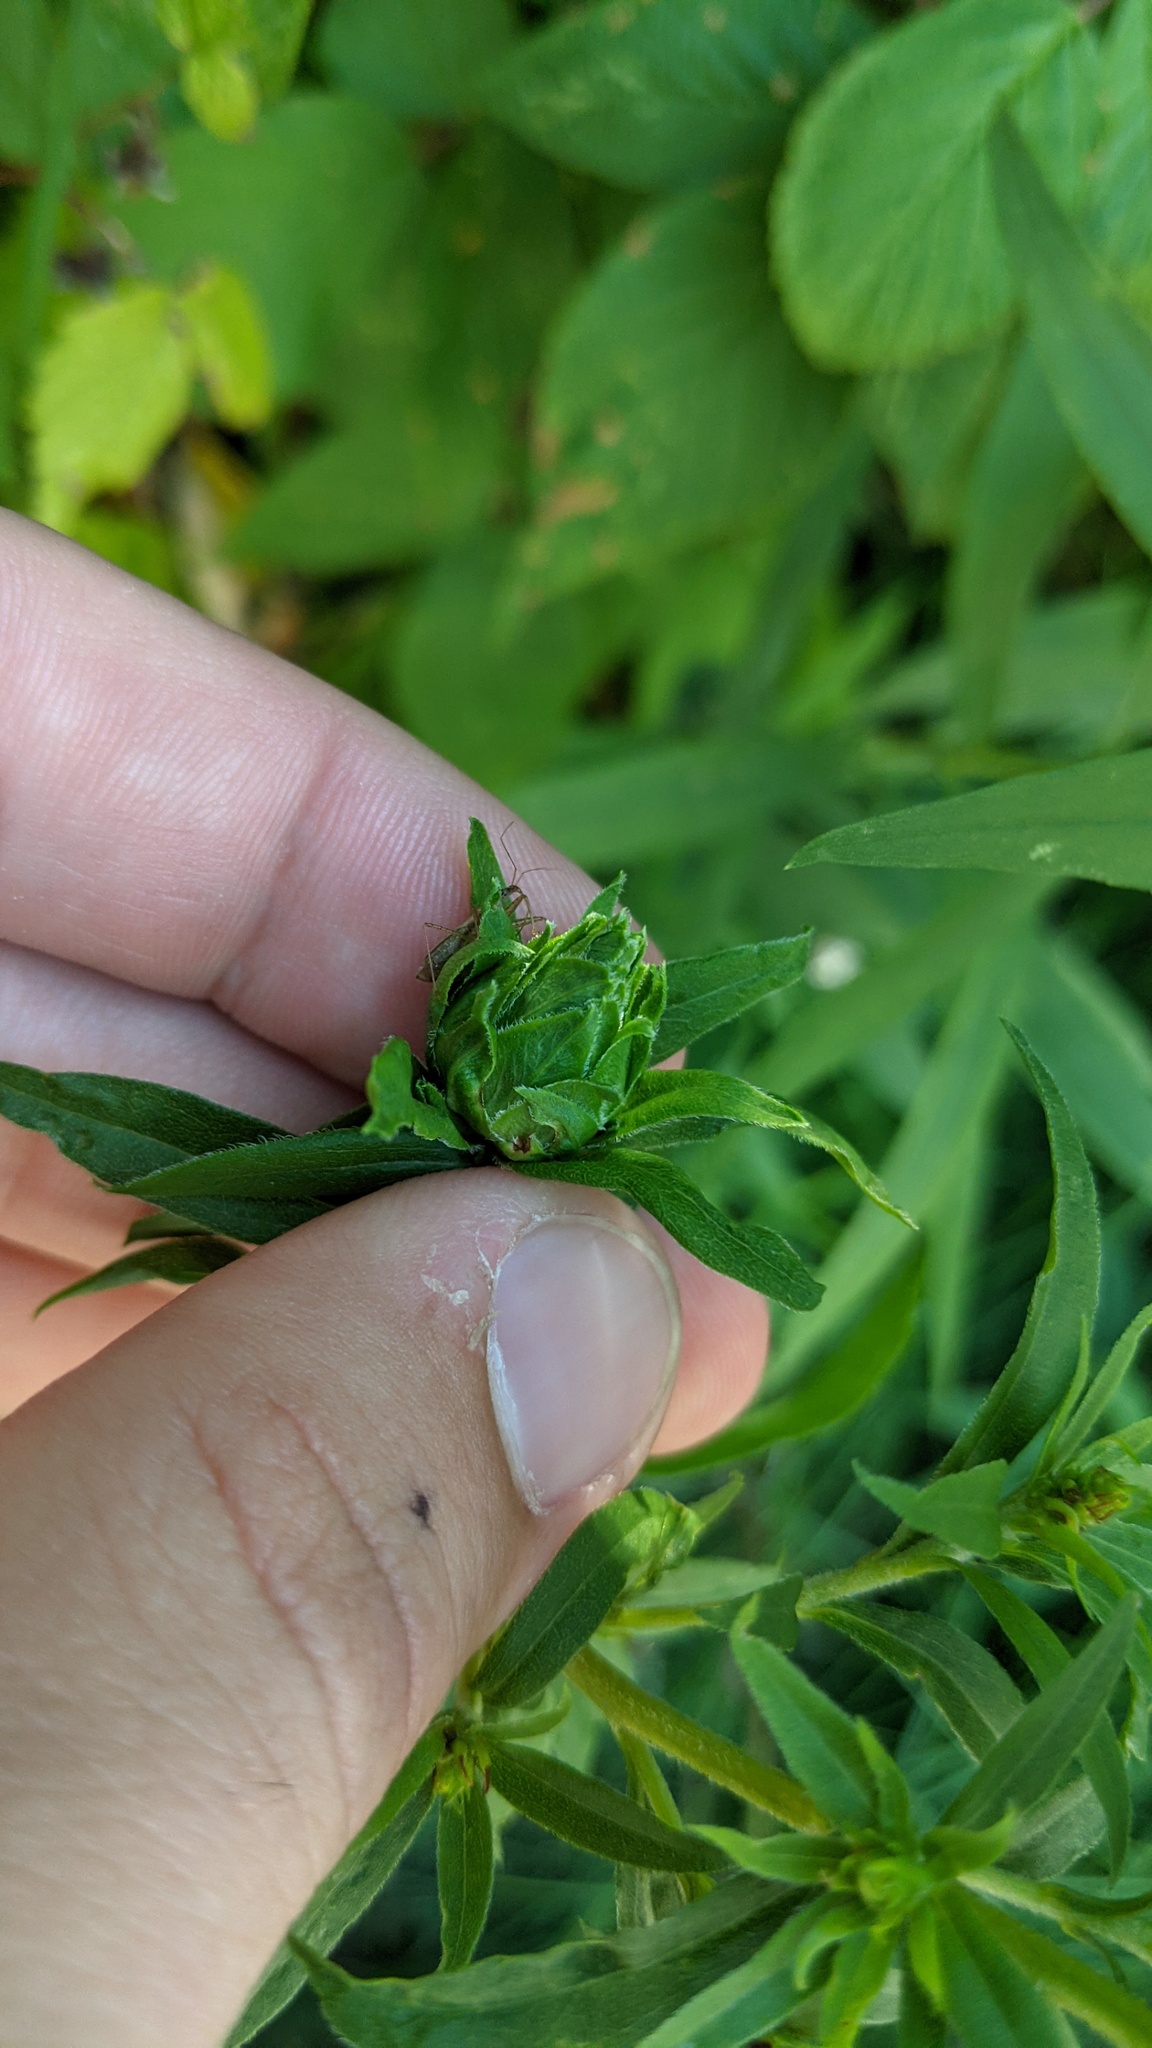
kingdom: Animalia
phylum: Arthropoda
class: Insecta
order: Diptera
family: Tephritidae
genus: Procecidochares
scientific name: Procecidochares atra
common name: Goldenrod brussels sprout gall fly
